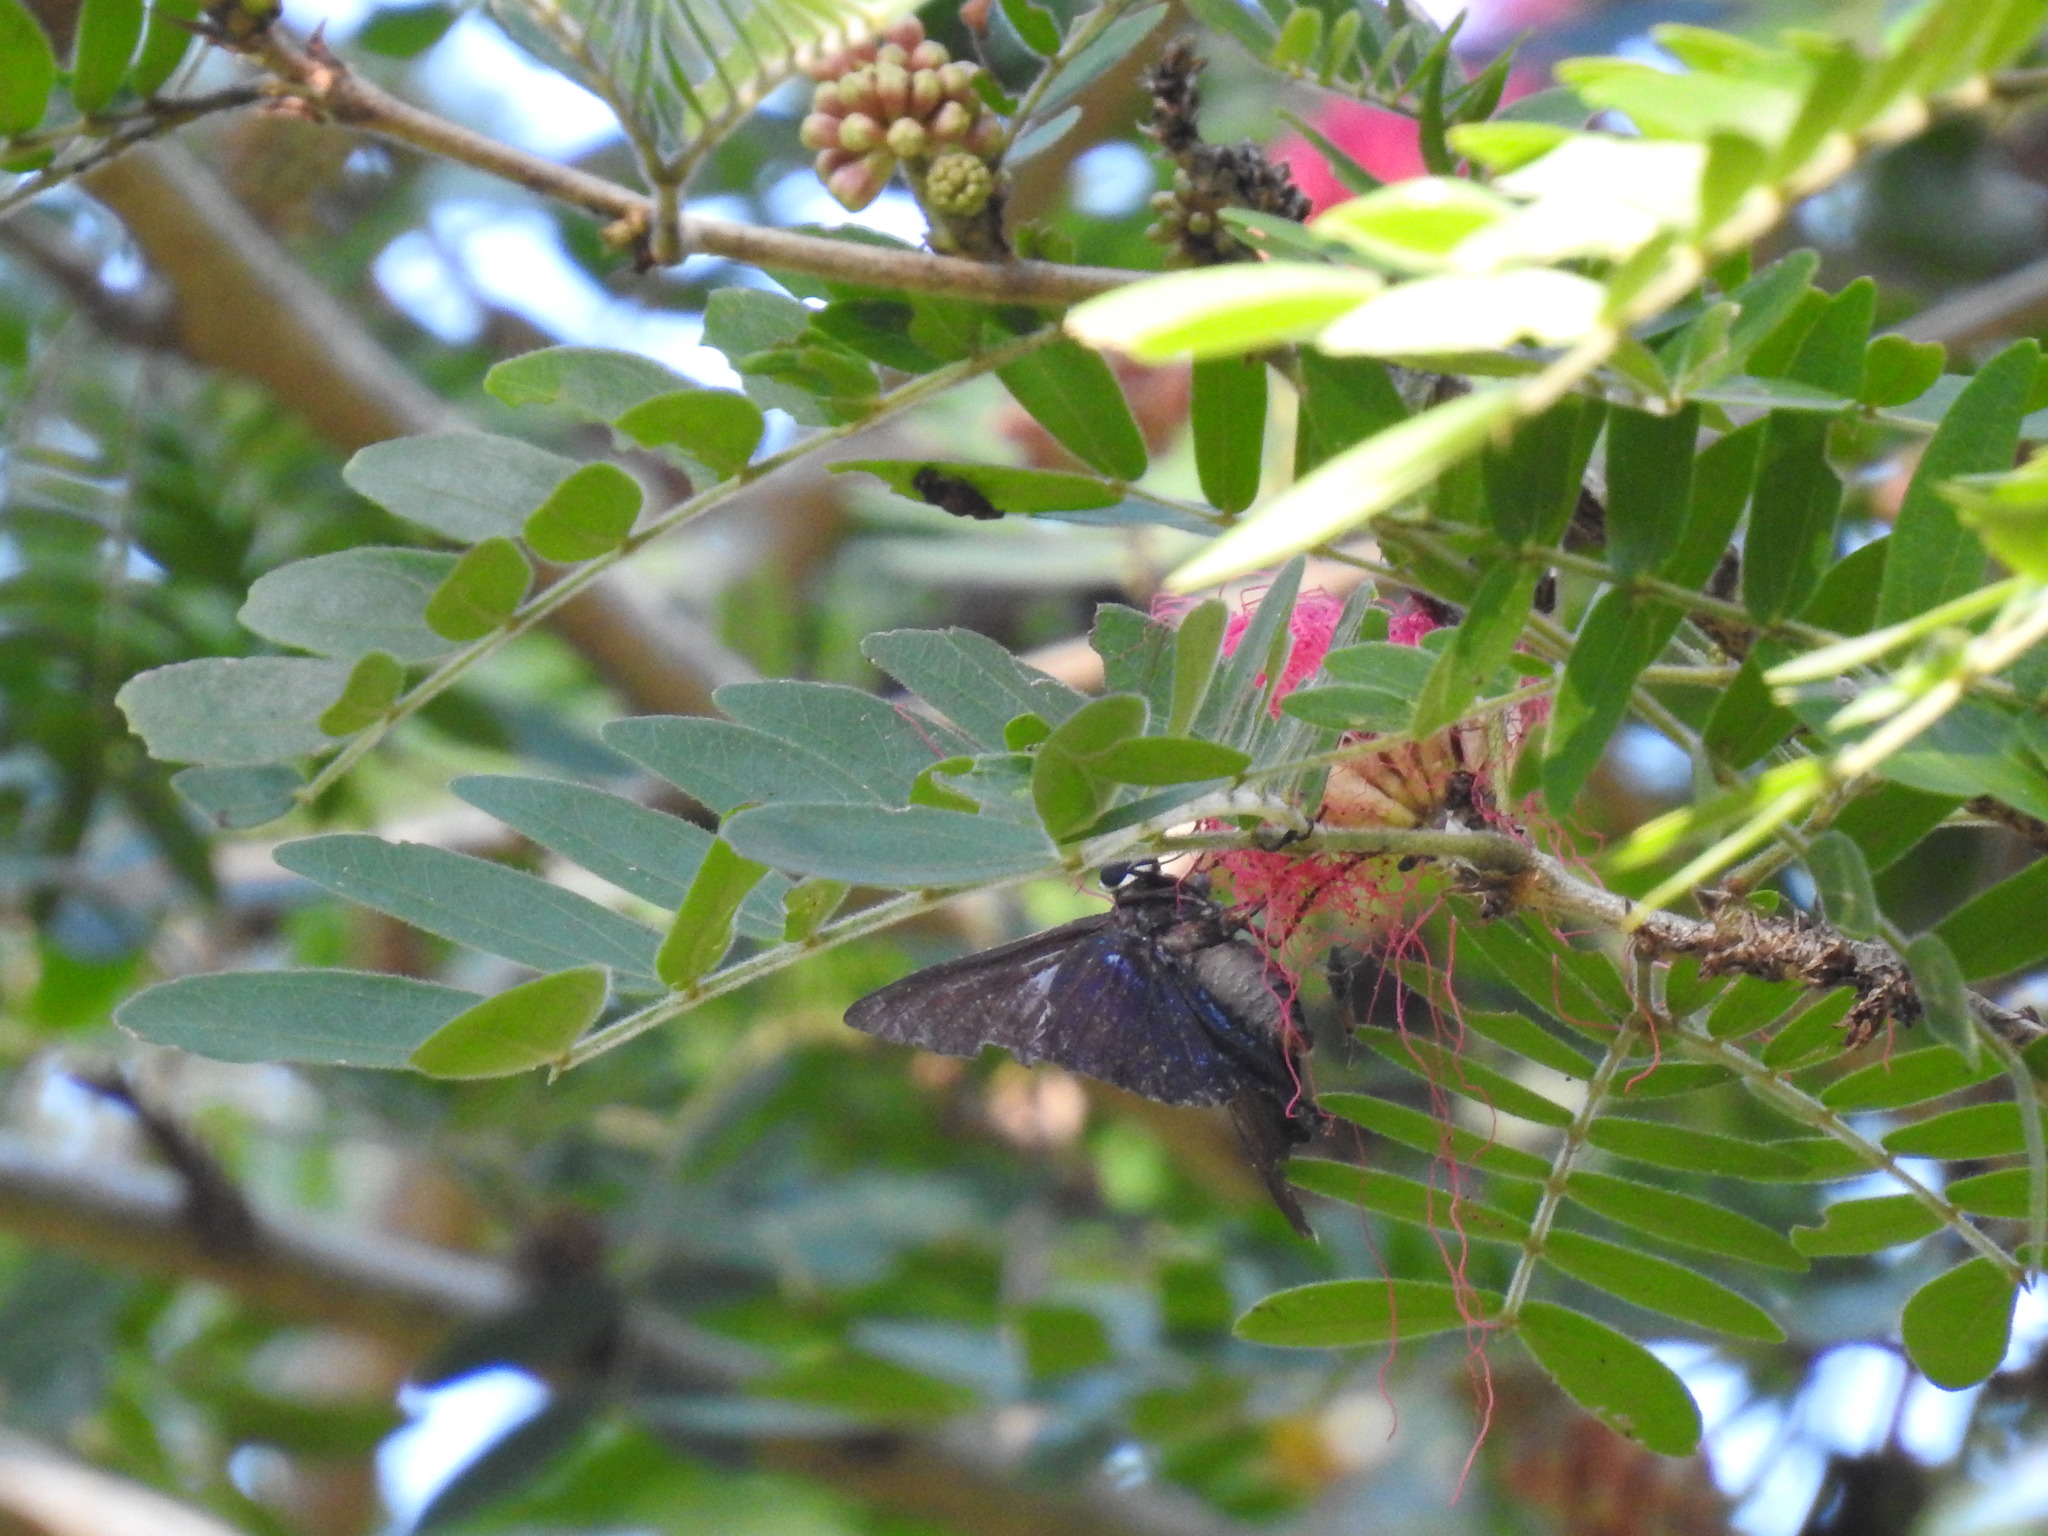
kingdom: Animalia
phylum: Arthropoda
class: Insecta
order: Lepidoptera
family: Hesperiidae
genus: Phocides
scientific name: Phocides pigmalion
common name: Mangrove skipper
